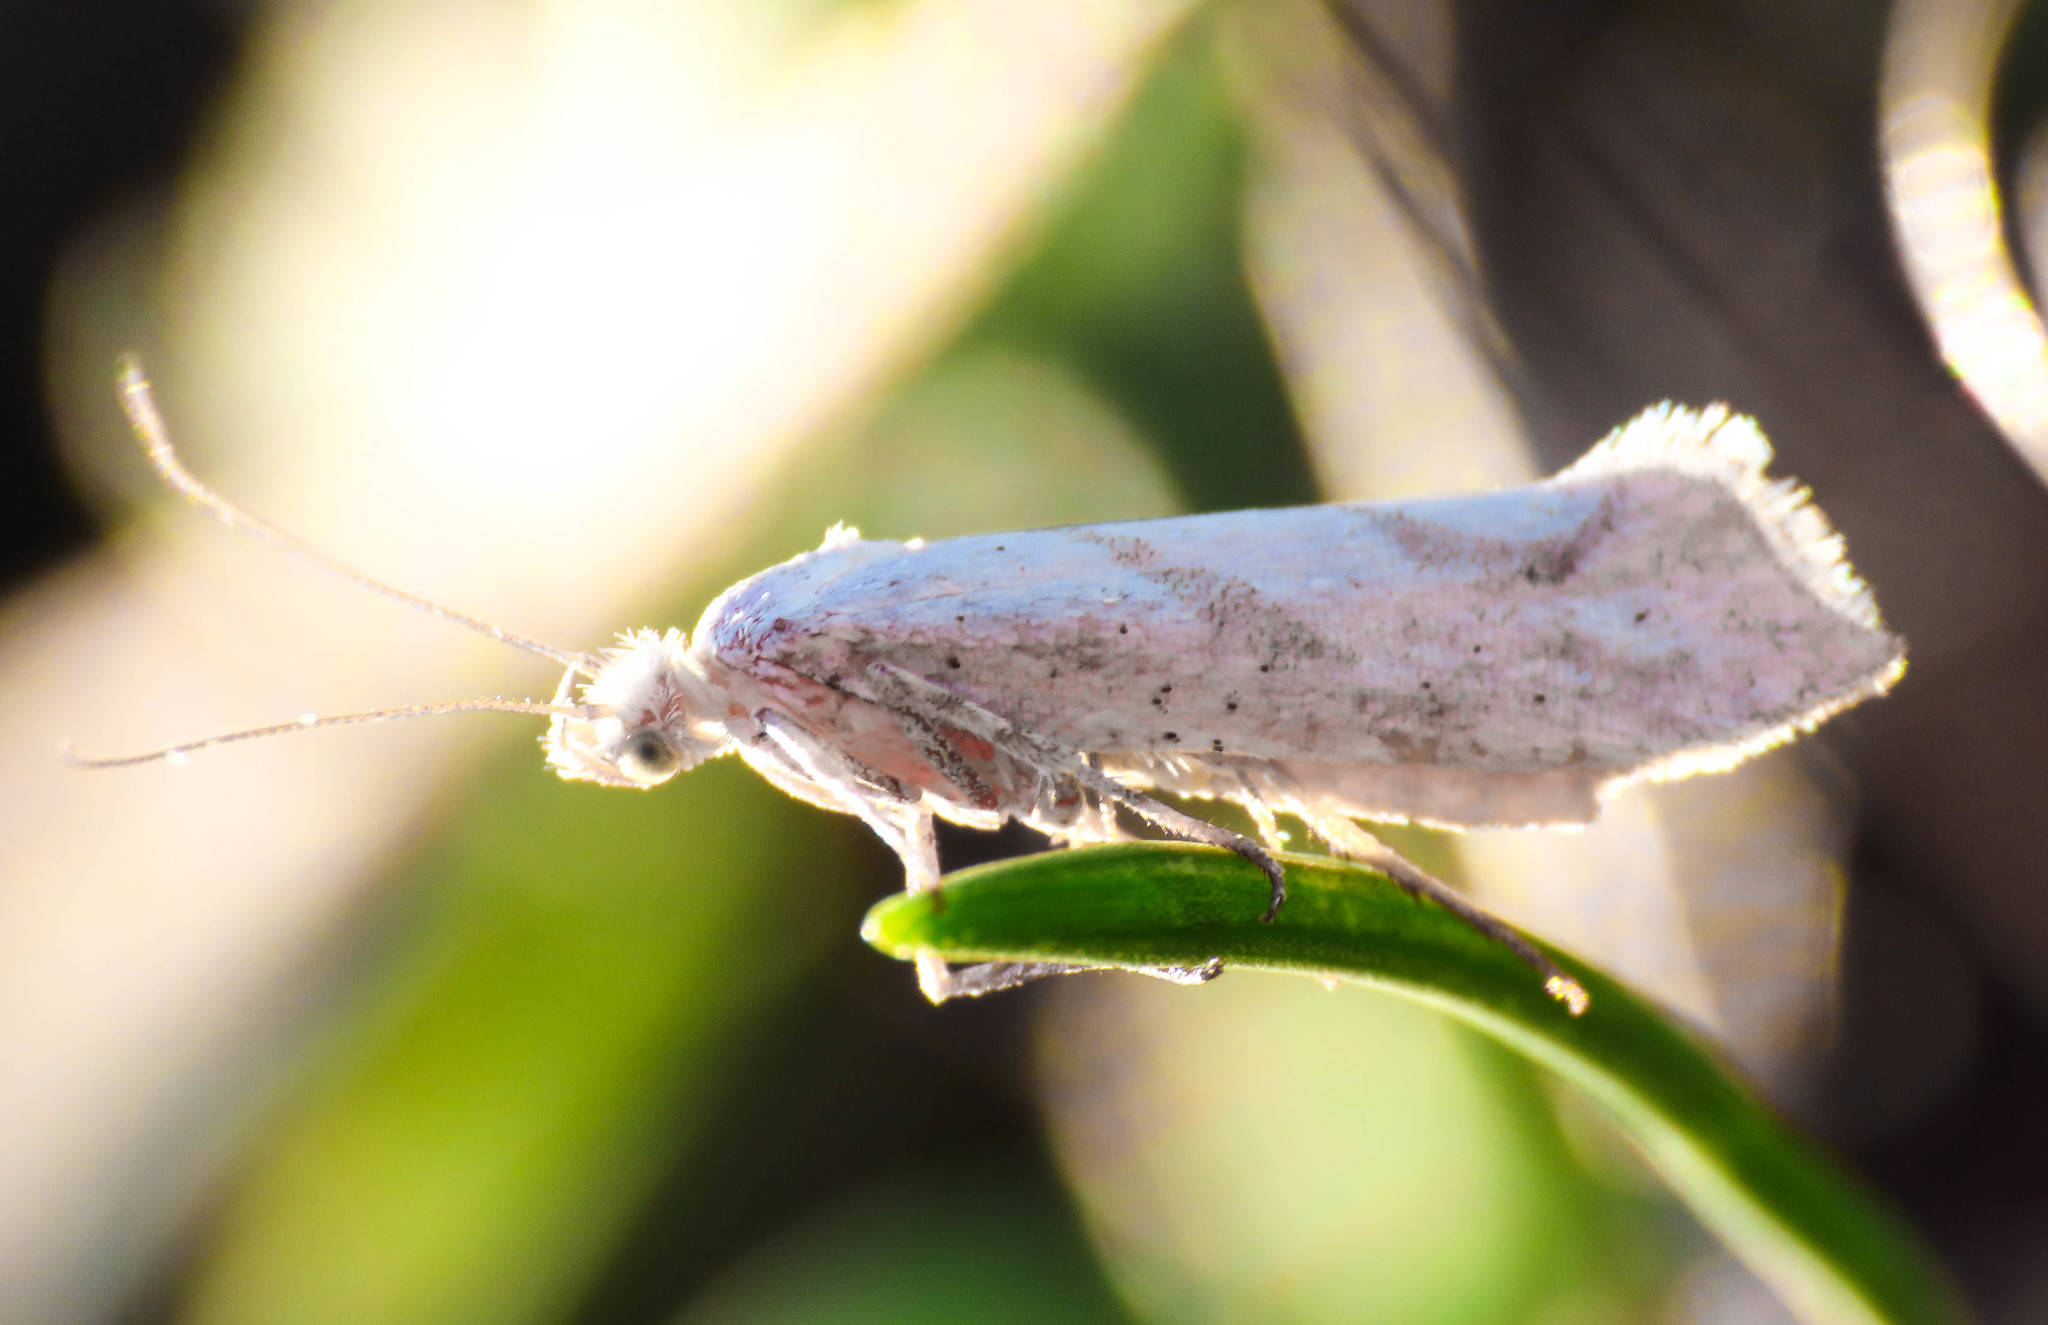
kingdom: Animalia
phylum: Arthropoda
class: Insecta
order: Lepidoptera
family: Ypsolophidae
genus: Ypsolopha
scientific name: Ypsolopha persicella
